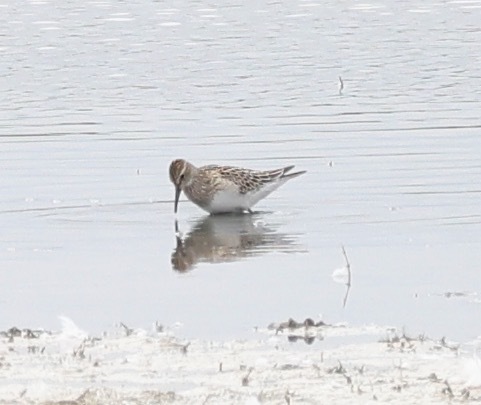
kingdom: Animalia
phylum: Chordata
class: Aves
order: Charadriiformes
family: Scolopacidae
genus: Calidris
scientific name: Calidris melanotos
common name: Pectoral sandpiper
